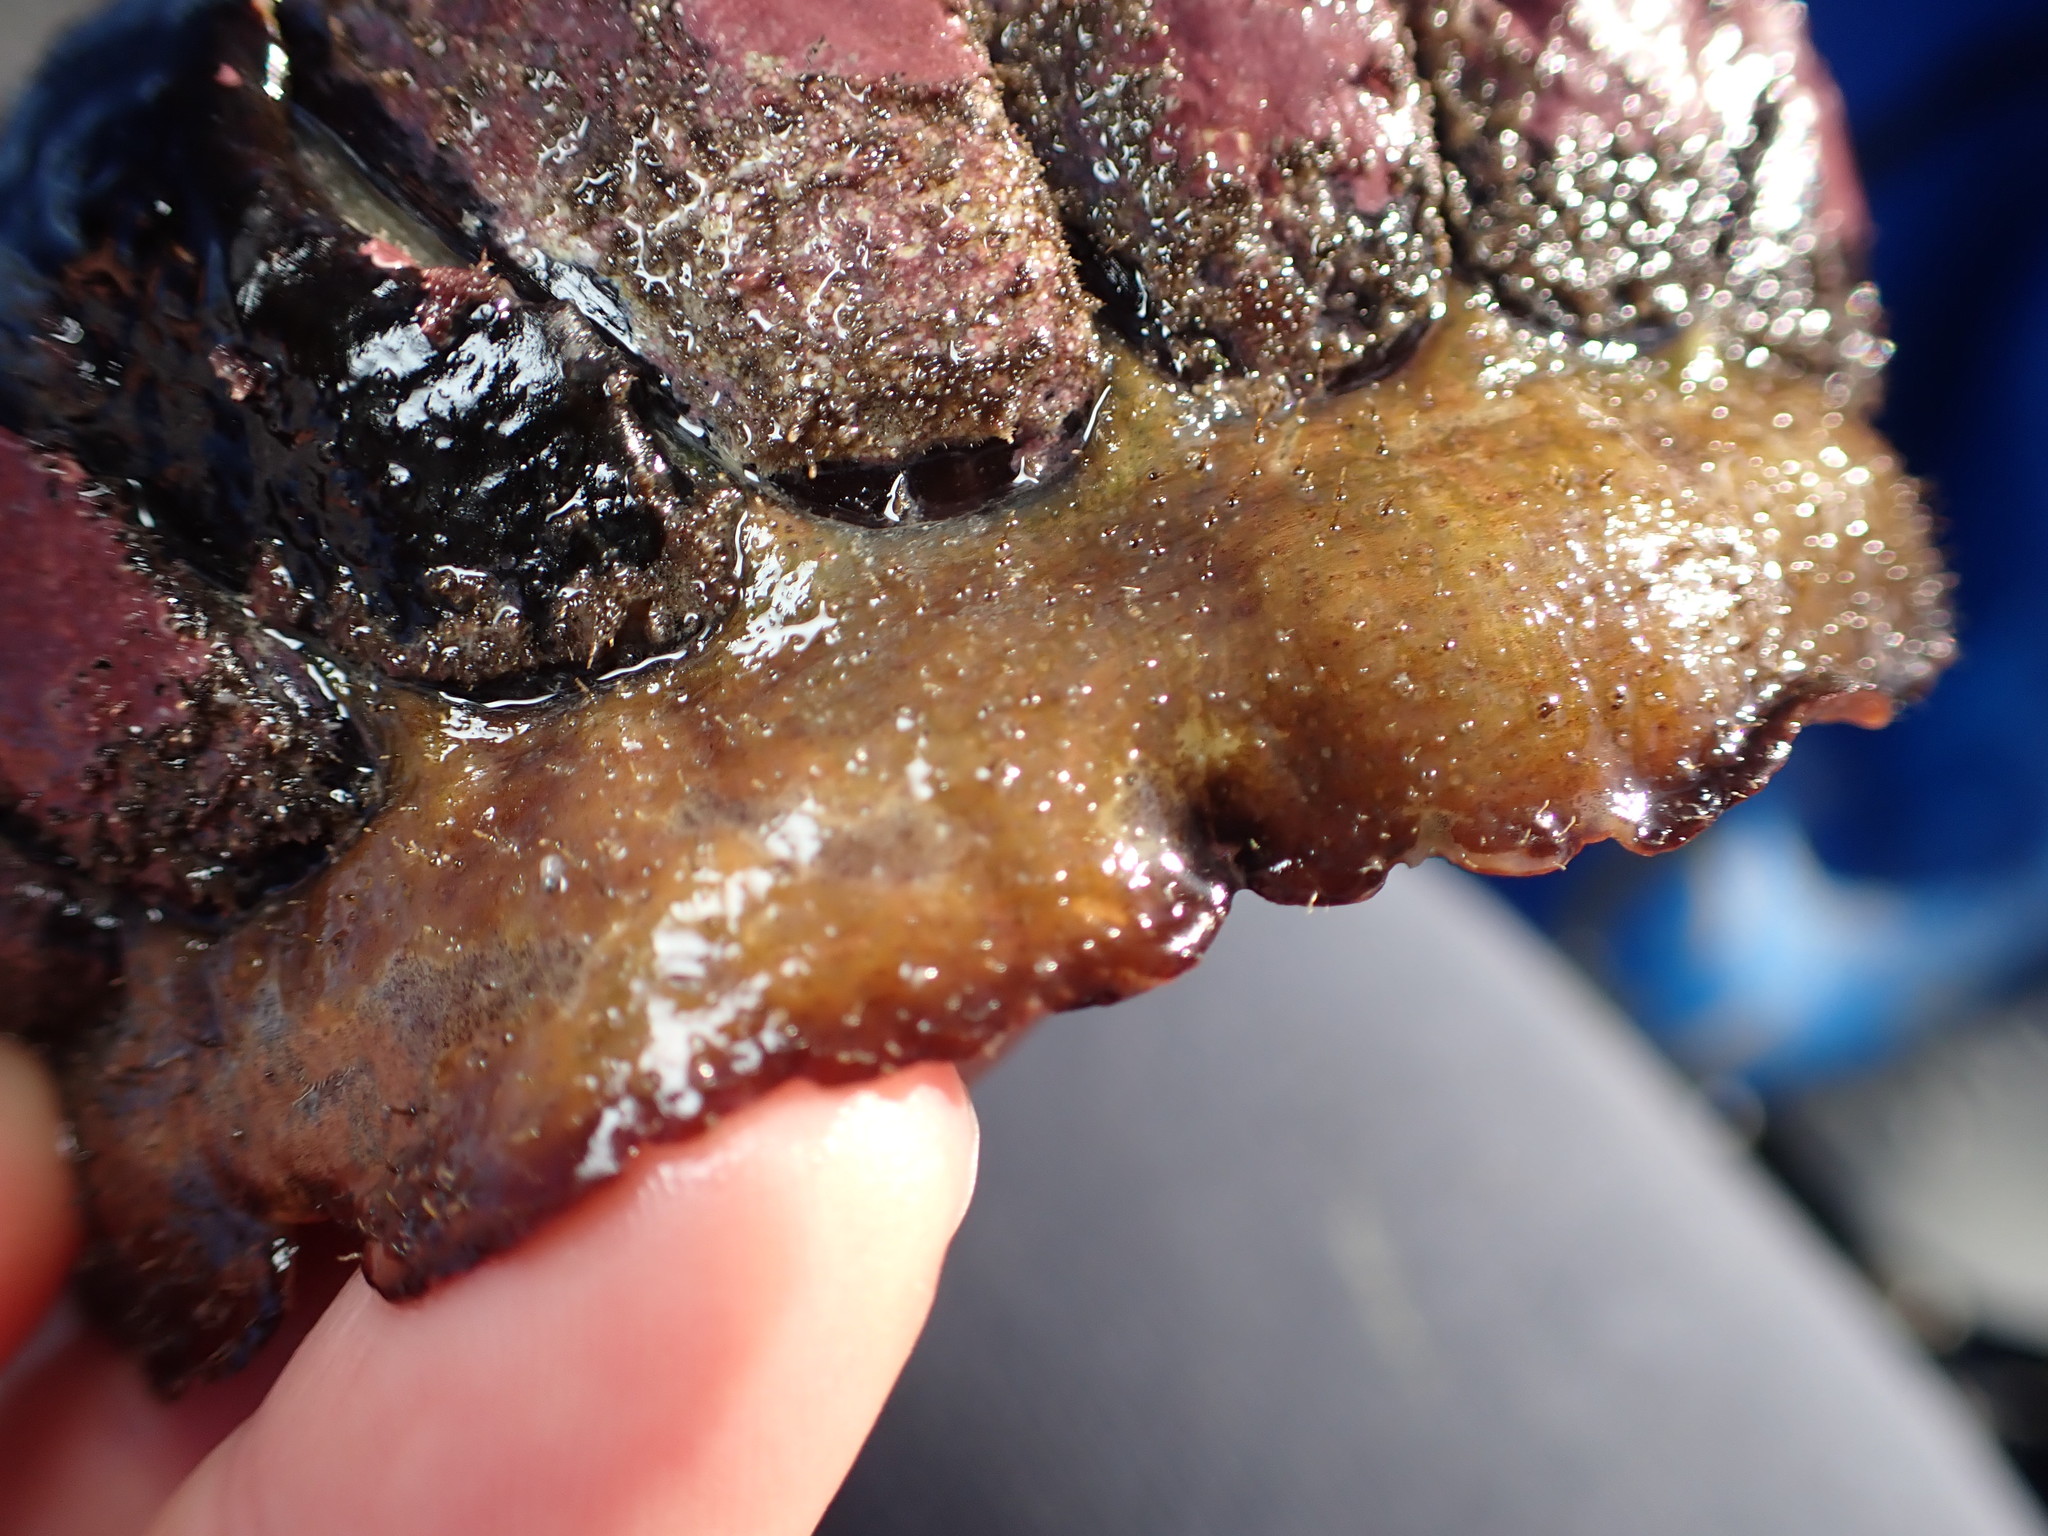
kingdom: Animalia
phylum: Mollusca
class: Polyplacophora
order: Callochitonida
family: Callochitonidae
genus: Eudoxochiton
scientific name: Eudoxochiton nobilis
